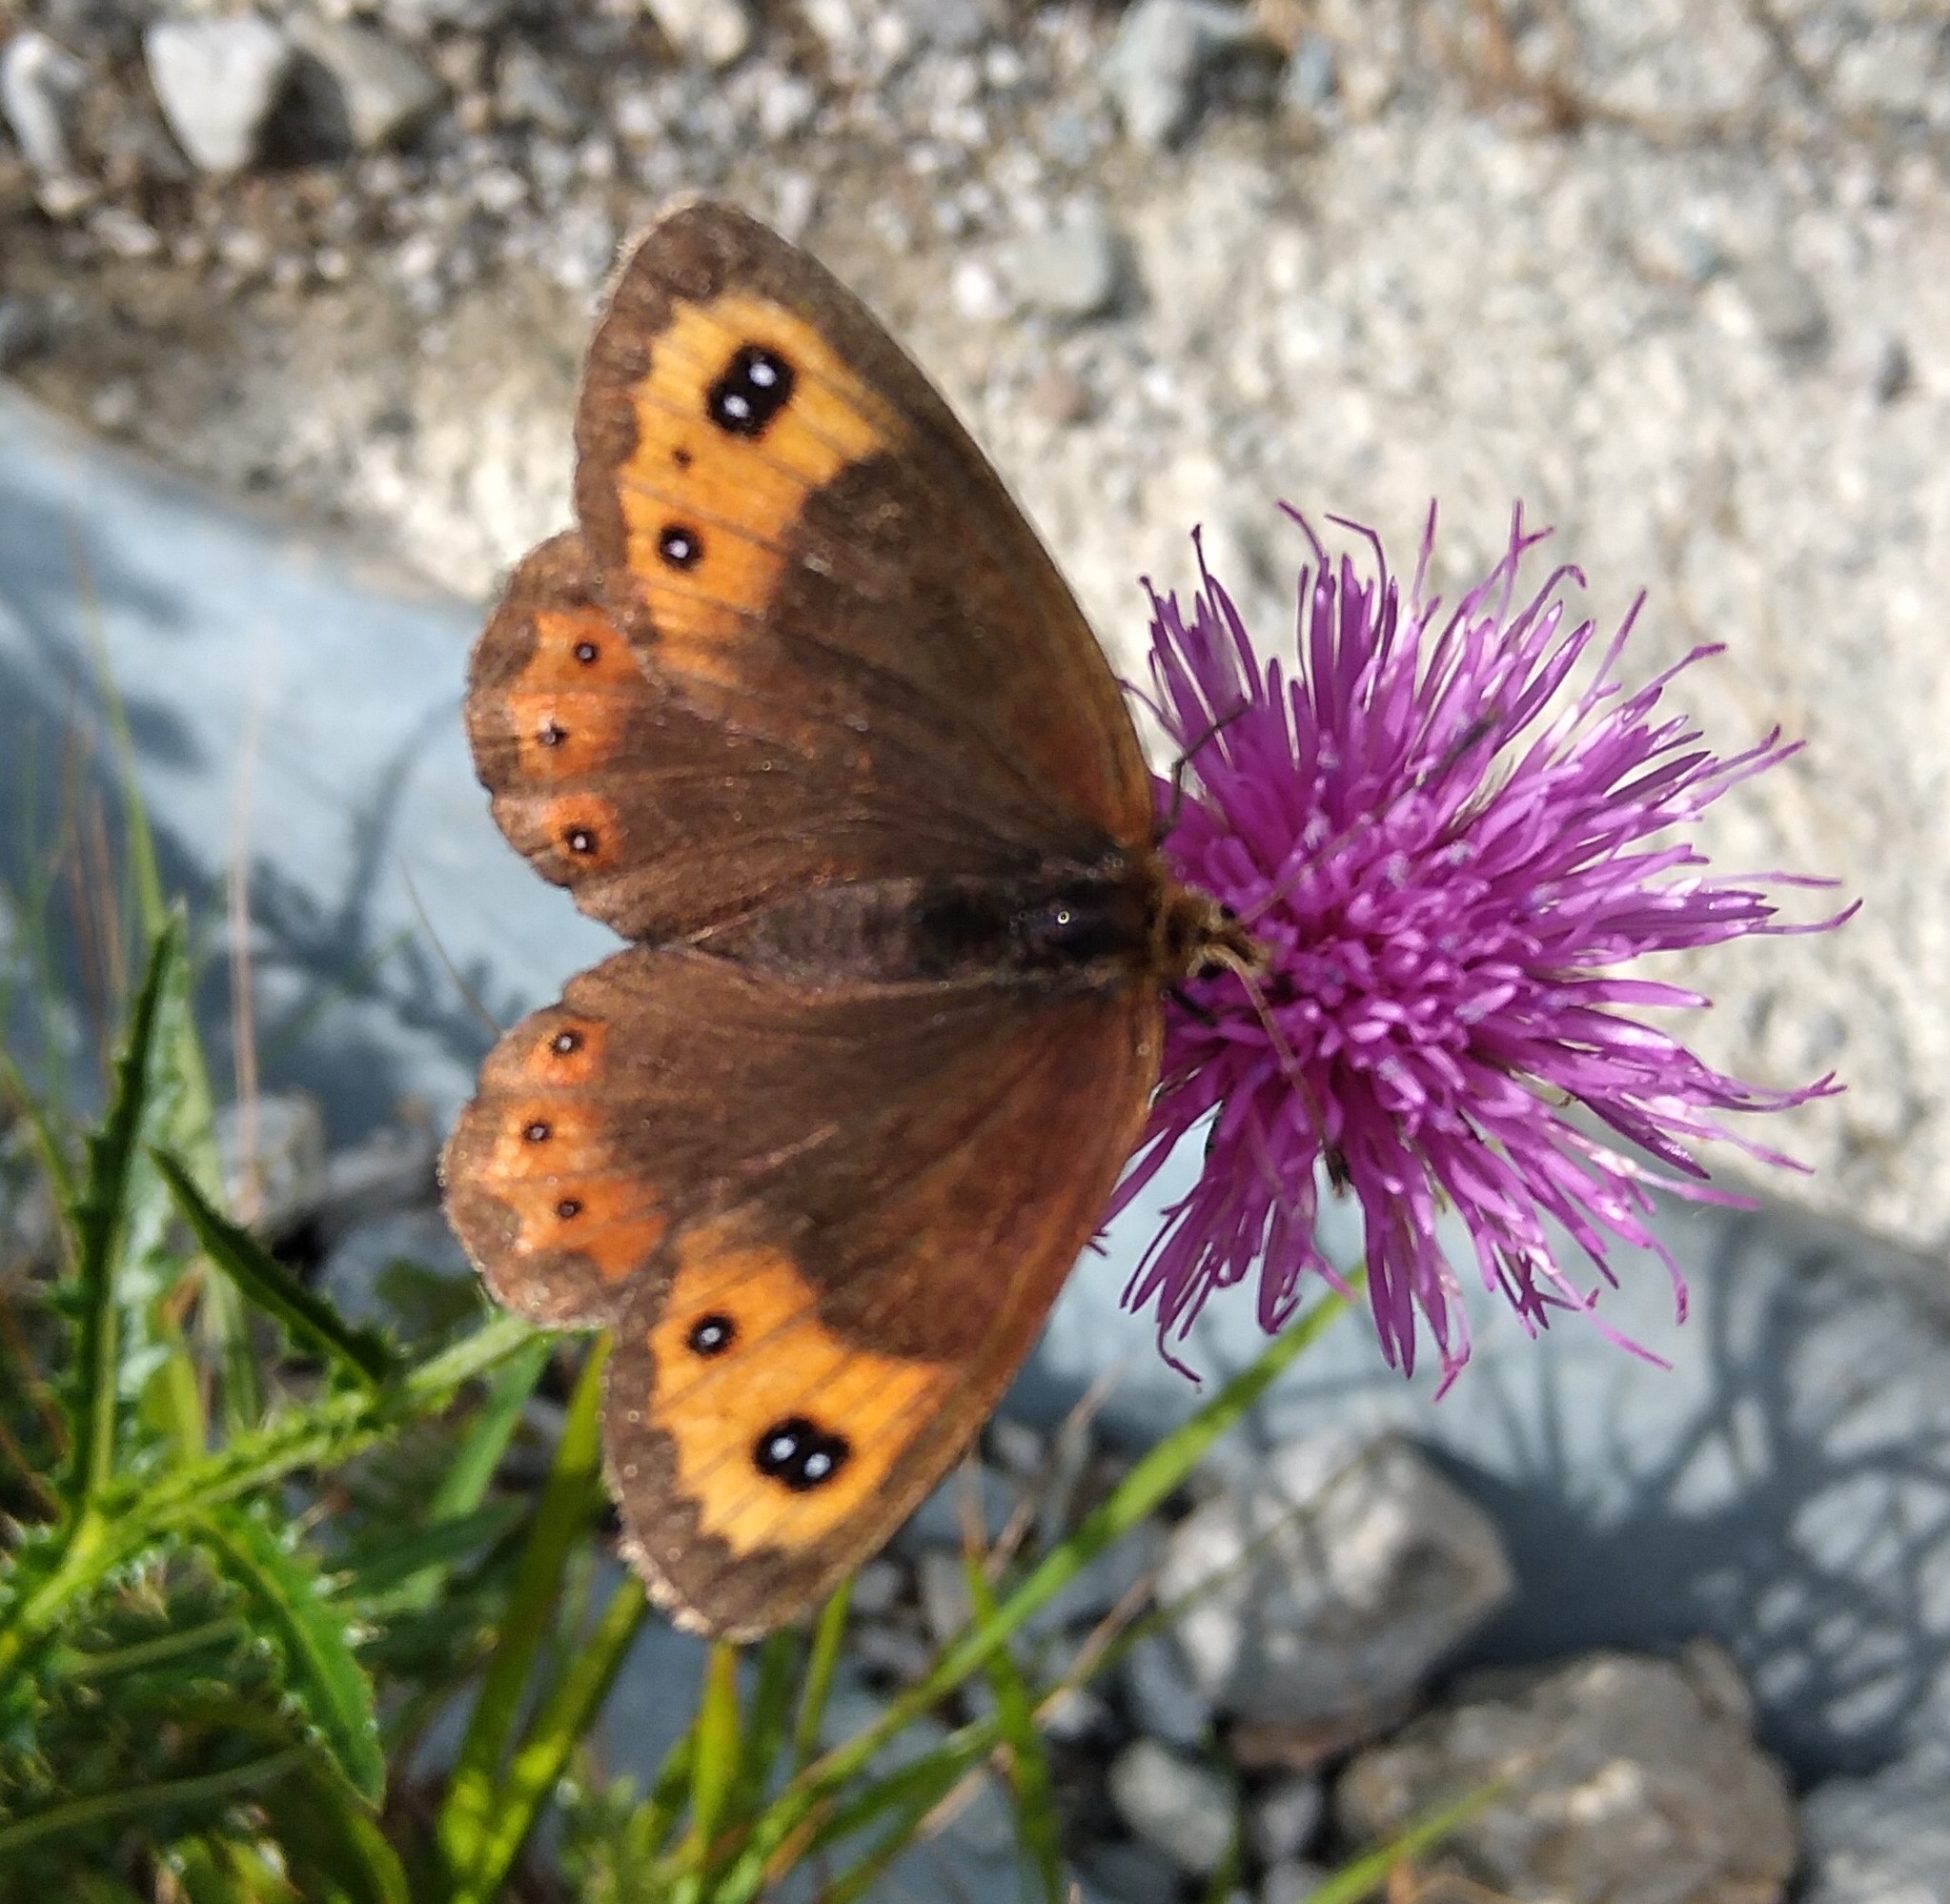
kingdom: Animalia
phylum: Arthropoda
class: Insecta
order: Lepidoptera
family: Nymphalidae
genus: Erebia
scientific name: Erebia montanus
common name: Marbled ringlet
